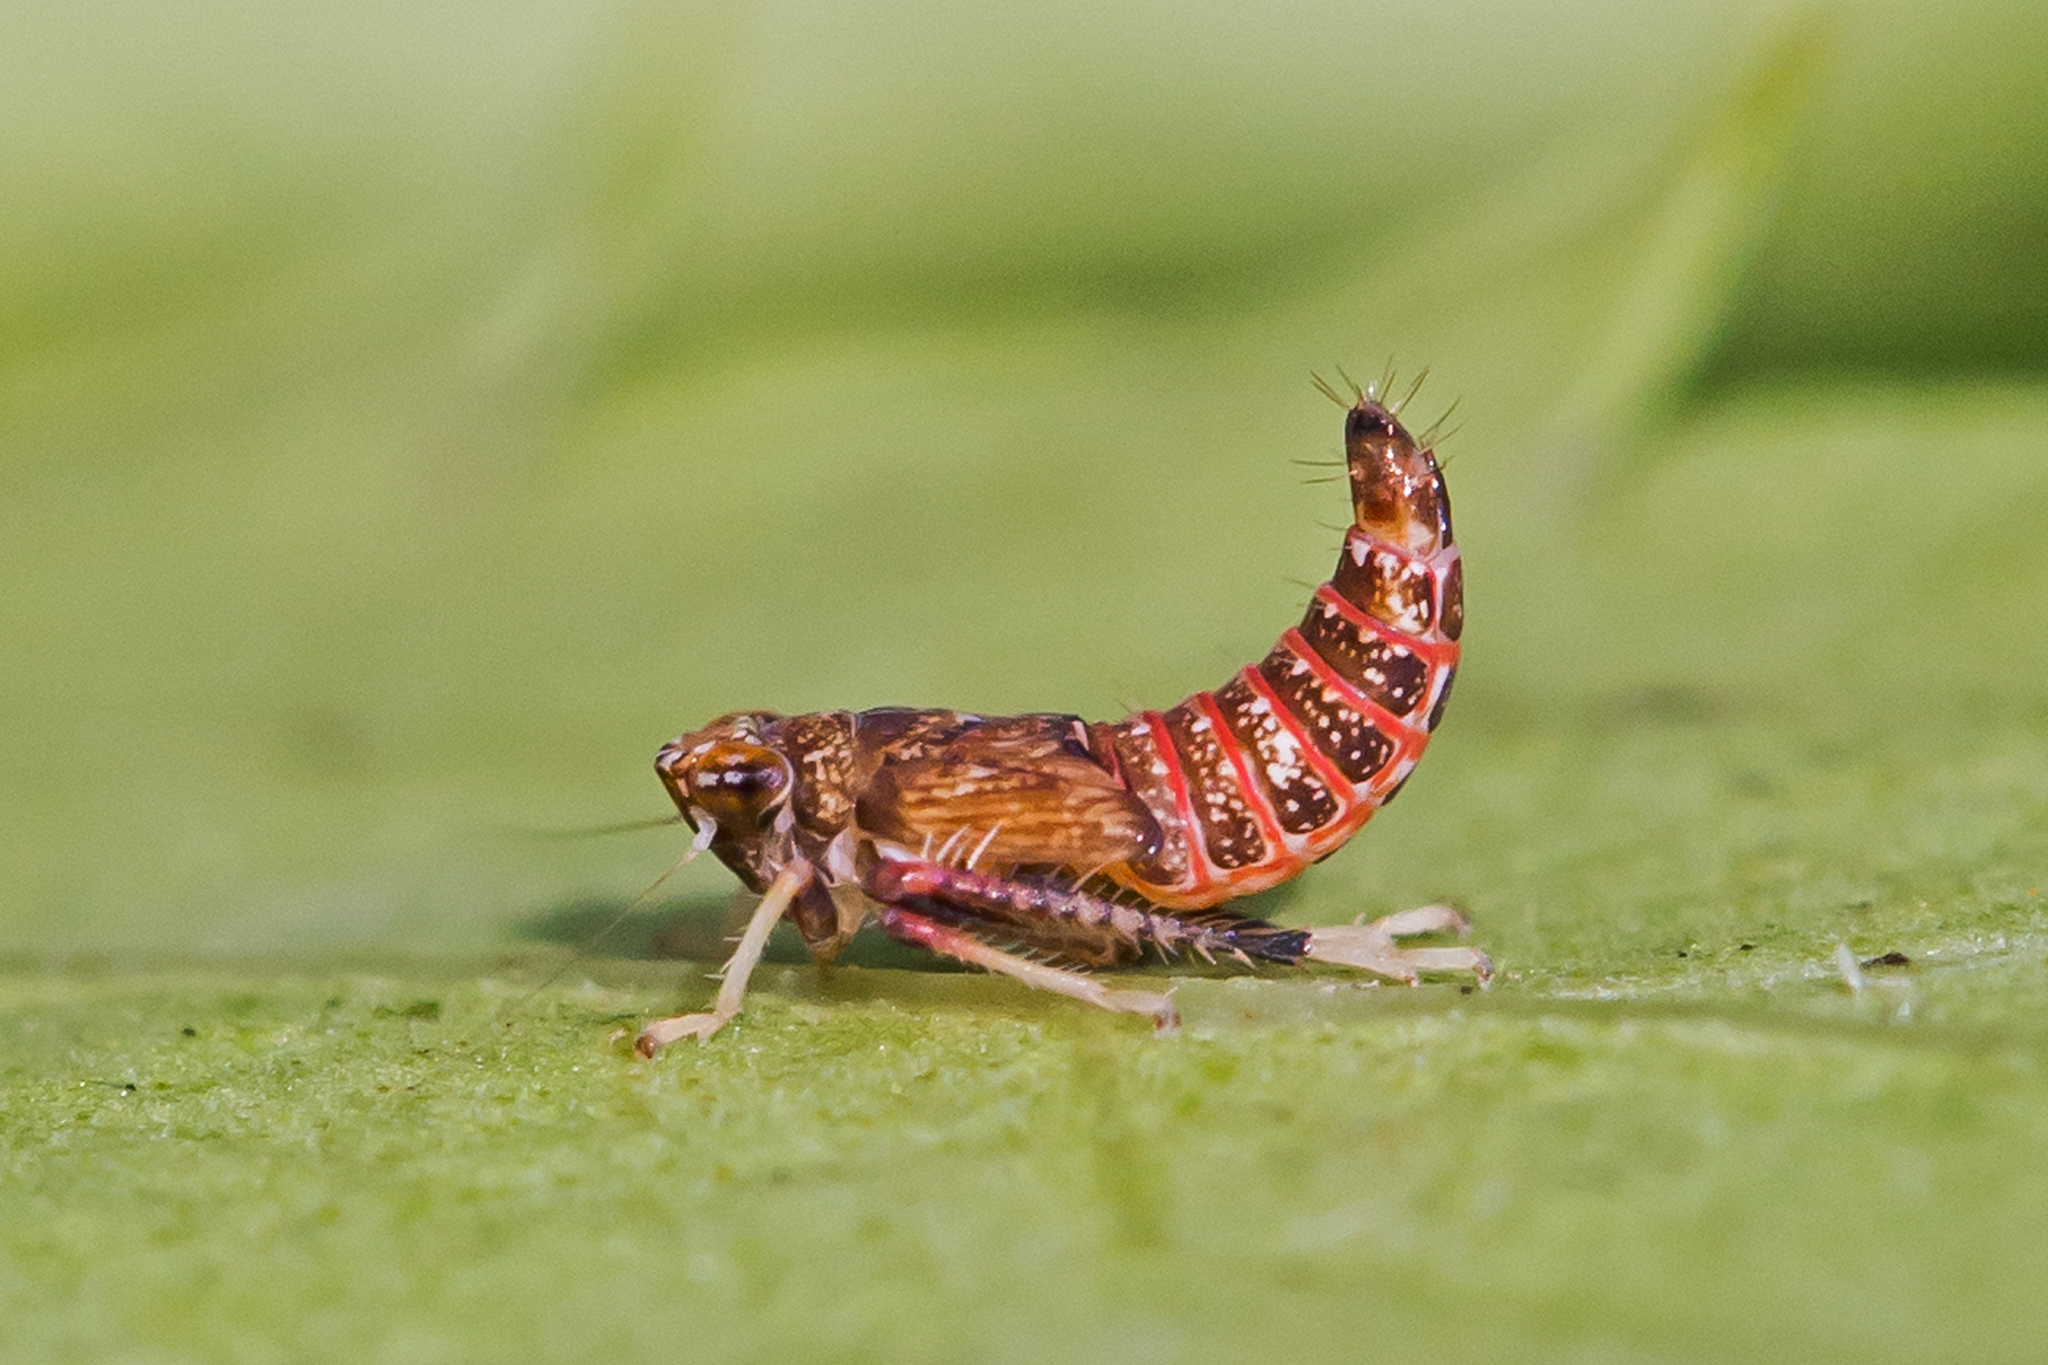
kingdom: Animalia
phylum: Arthropoda
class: Insecta
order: Hemiptera
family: Cicadellidae
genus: Orientus
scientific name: Orientus ishidae
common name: Japanese leafhopper
